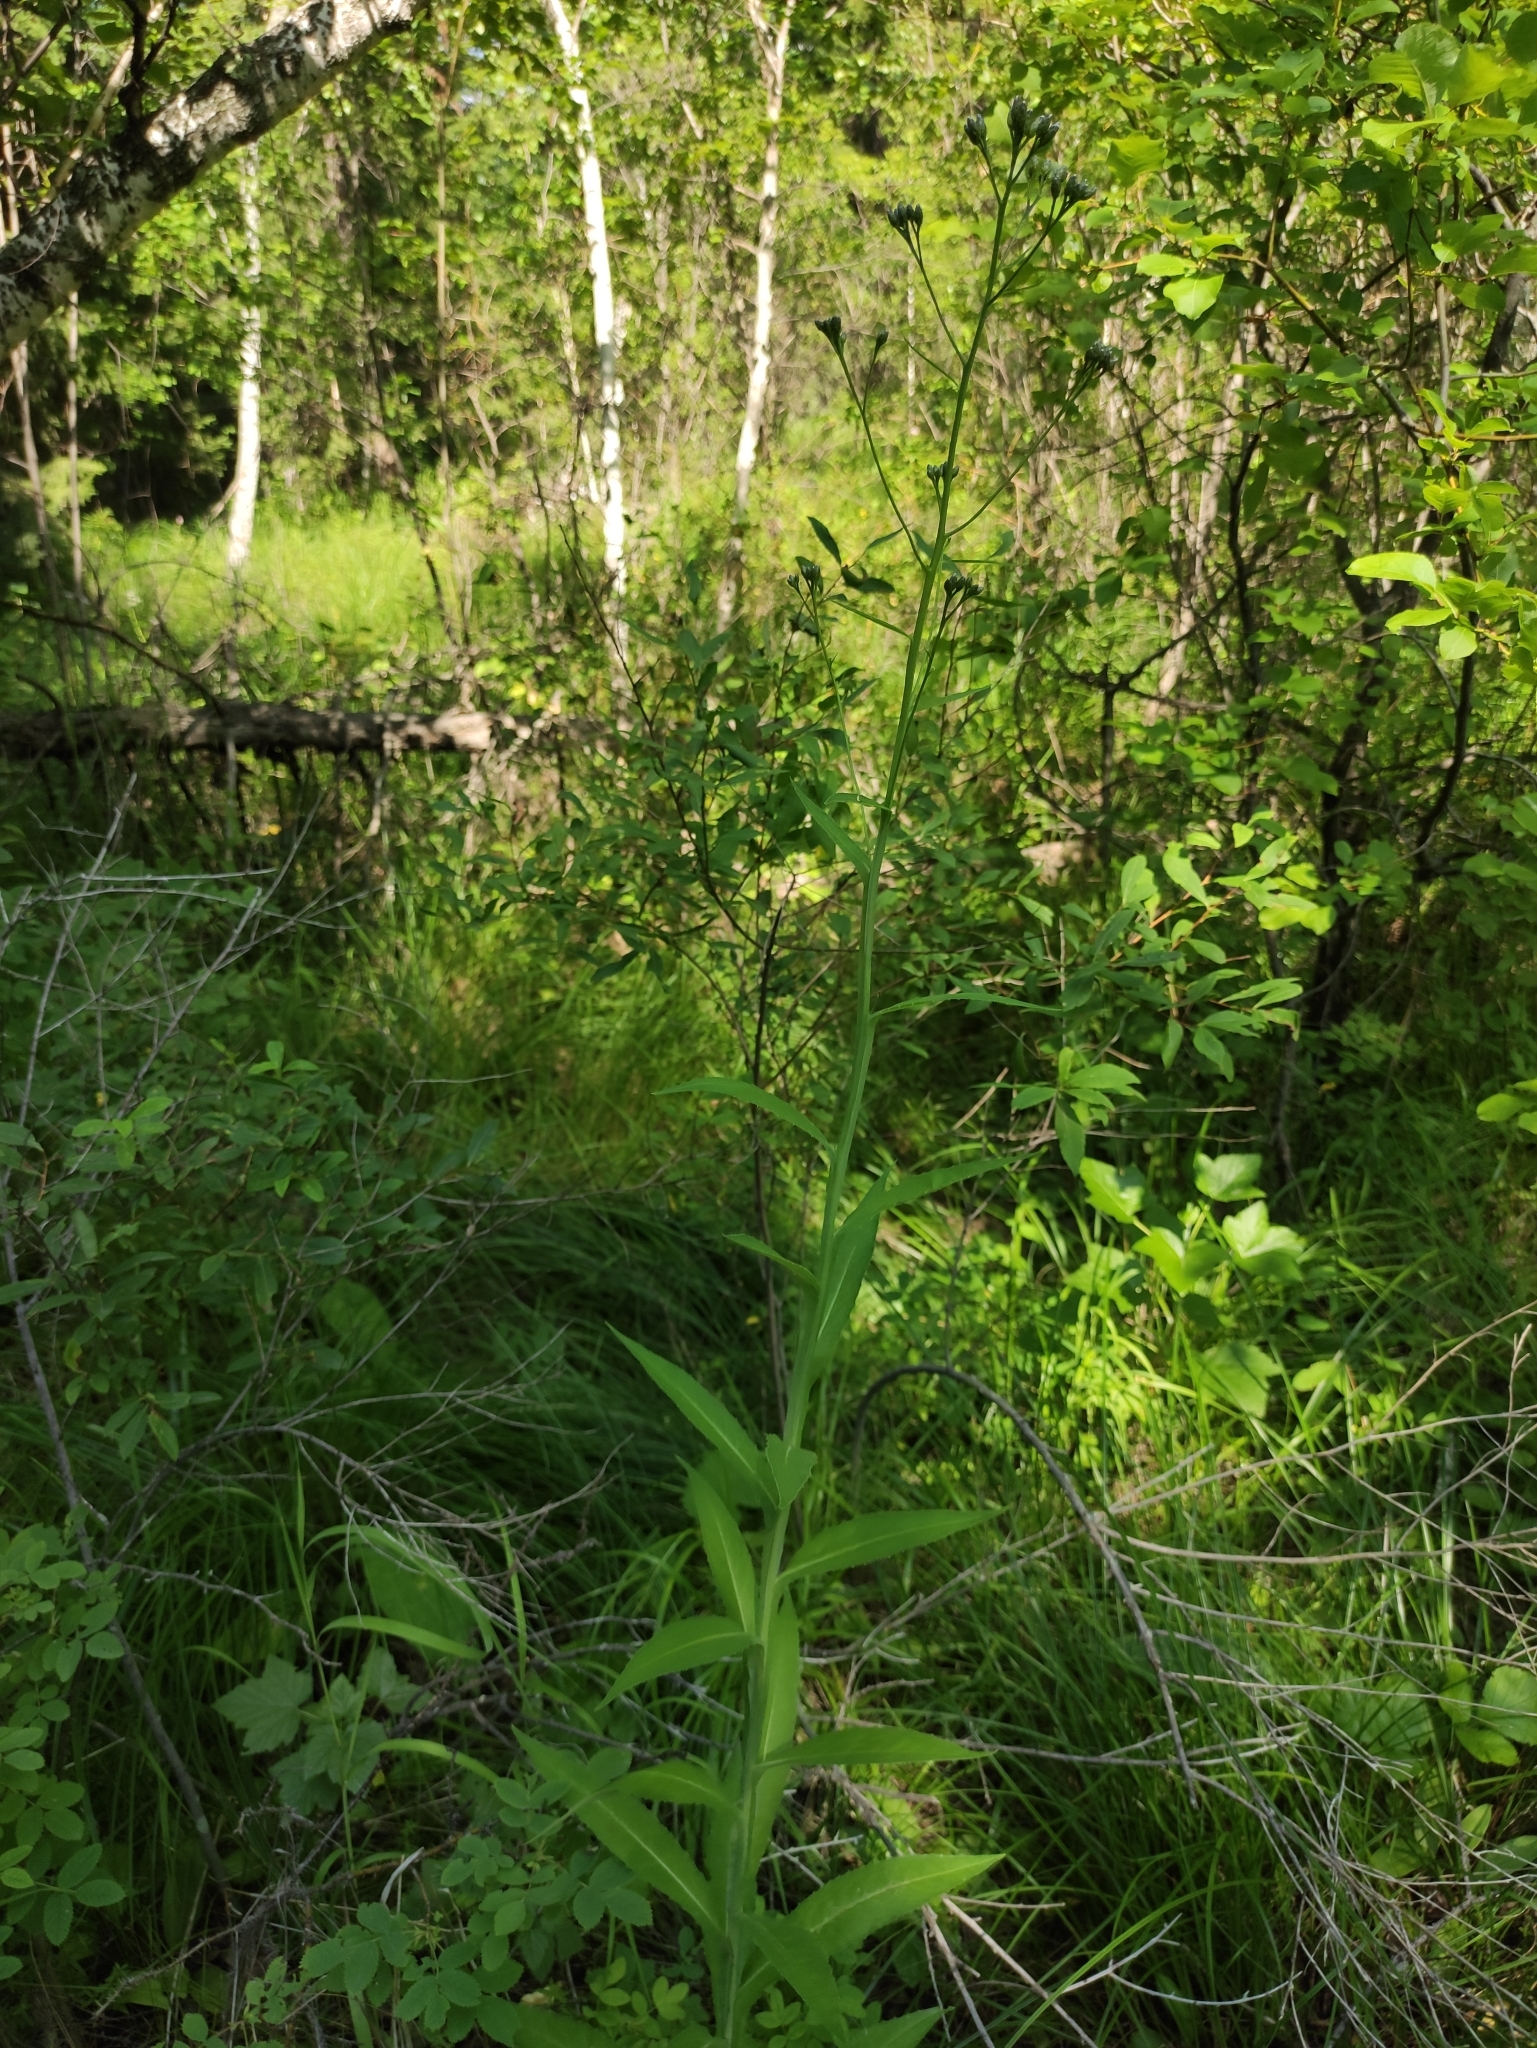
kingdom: Plantae
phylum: Tracheophyta
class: Magnoliopsida
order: Asterales
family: Asteraceae
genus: Saussurea
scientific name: Saussurea parviflora
